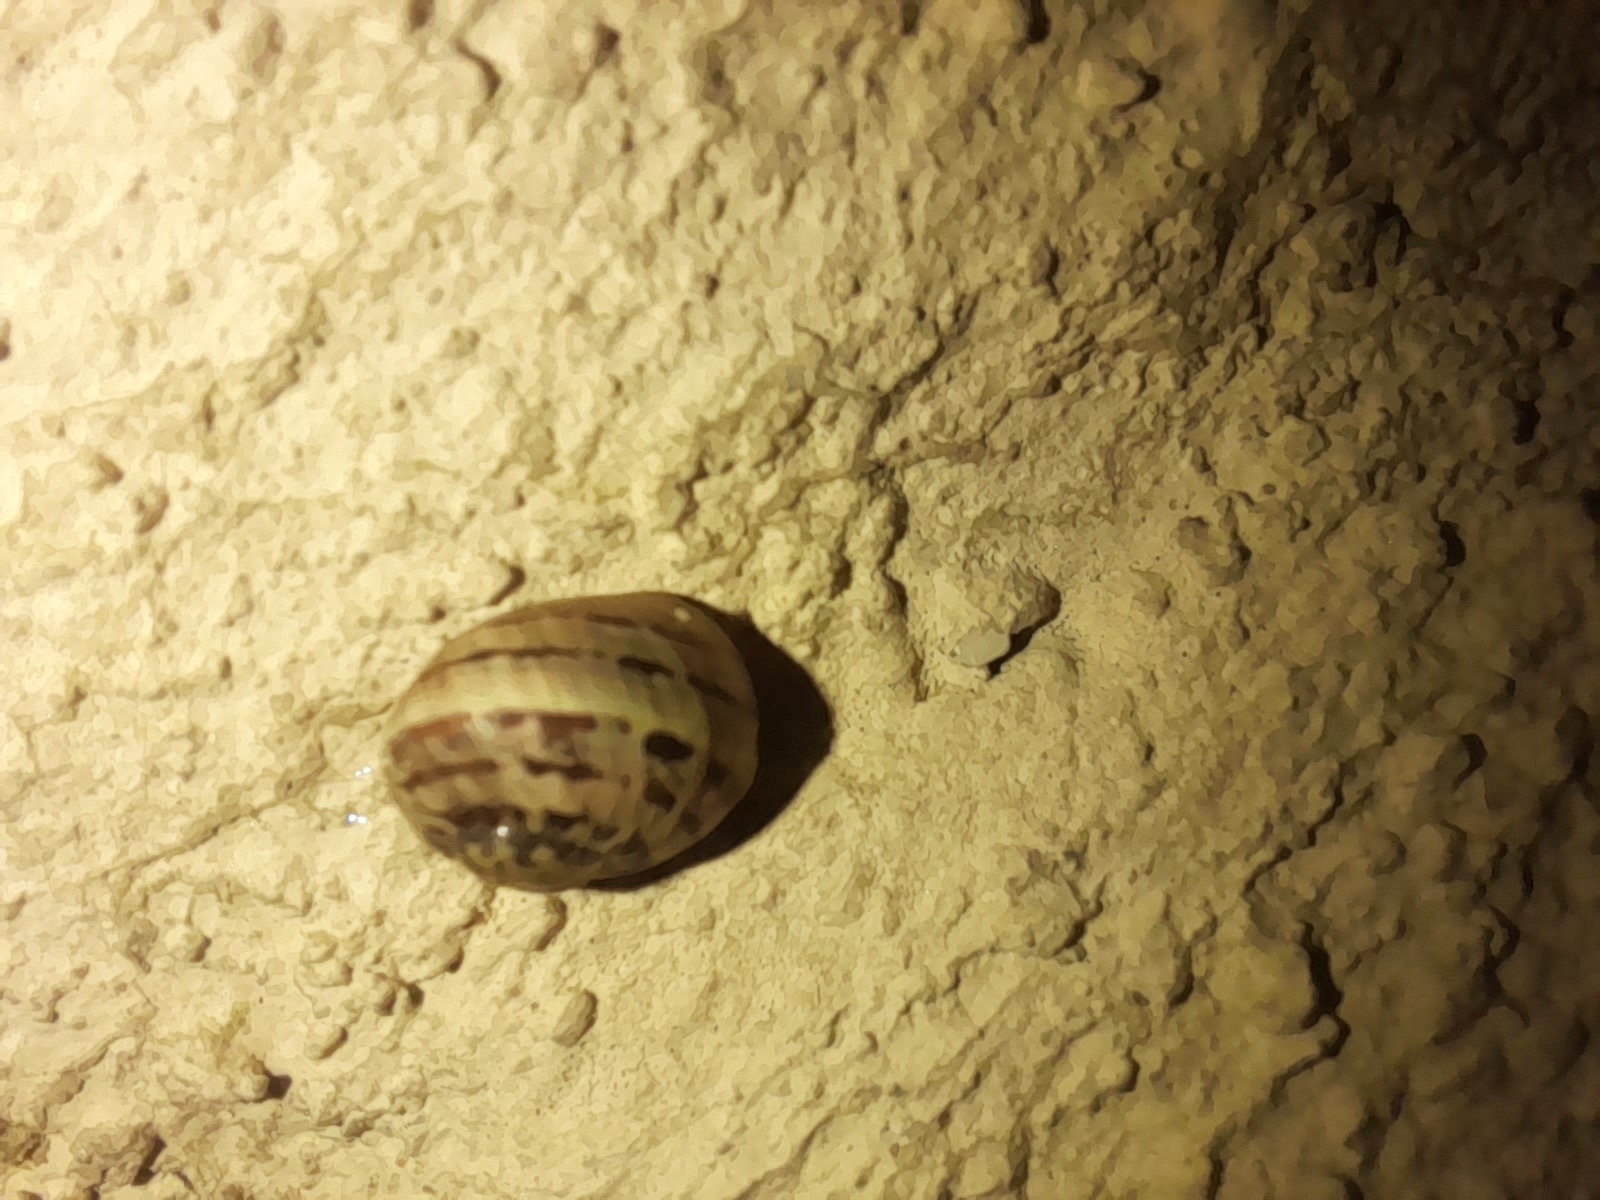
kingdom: Animalia
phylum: Mollusca
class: Gastropoda
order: Stylommatophora
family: Helicidae
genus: Cornu
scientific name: Cornu aspersum
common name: Brown garden snail
